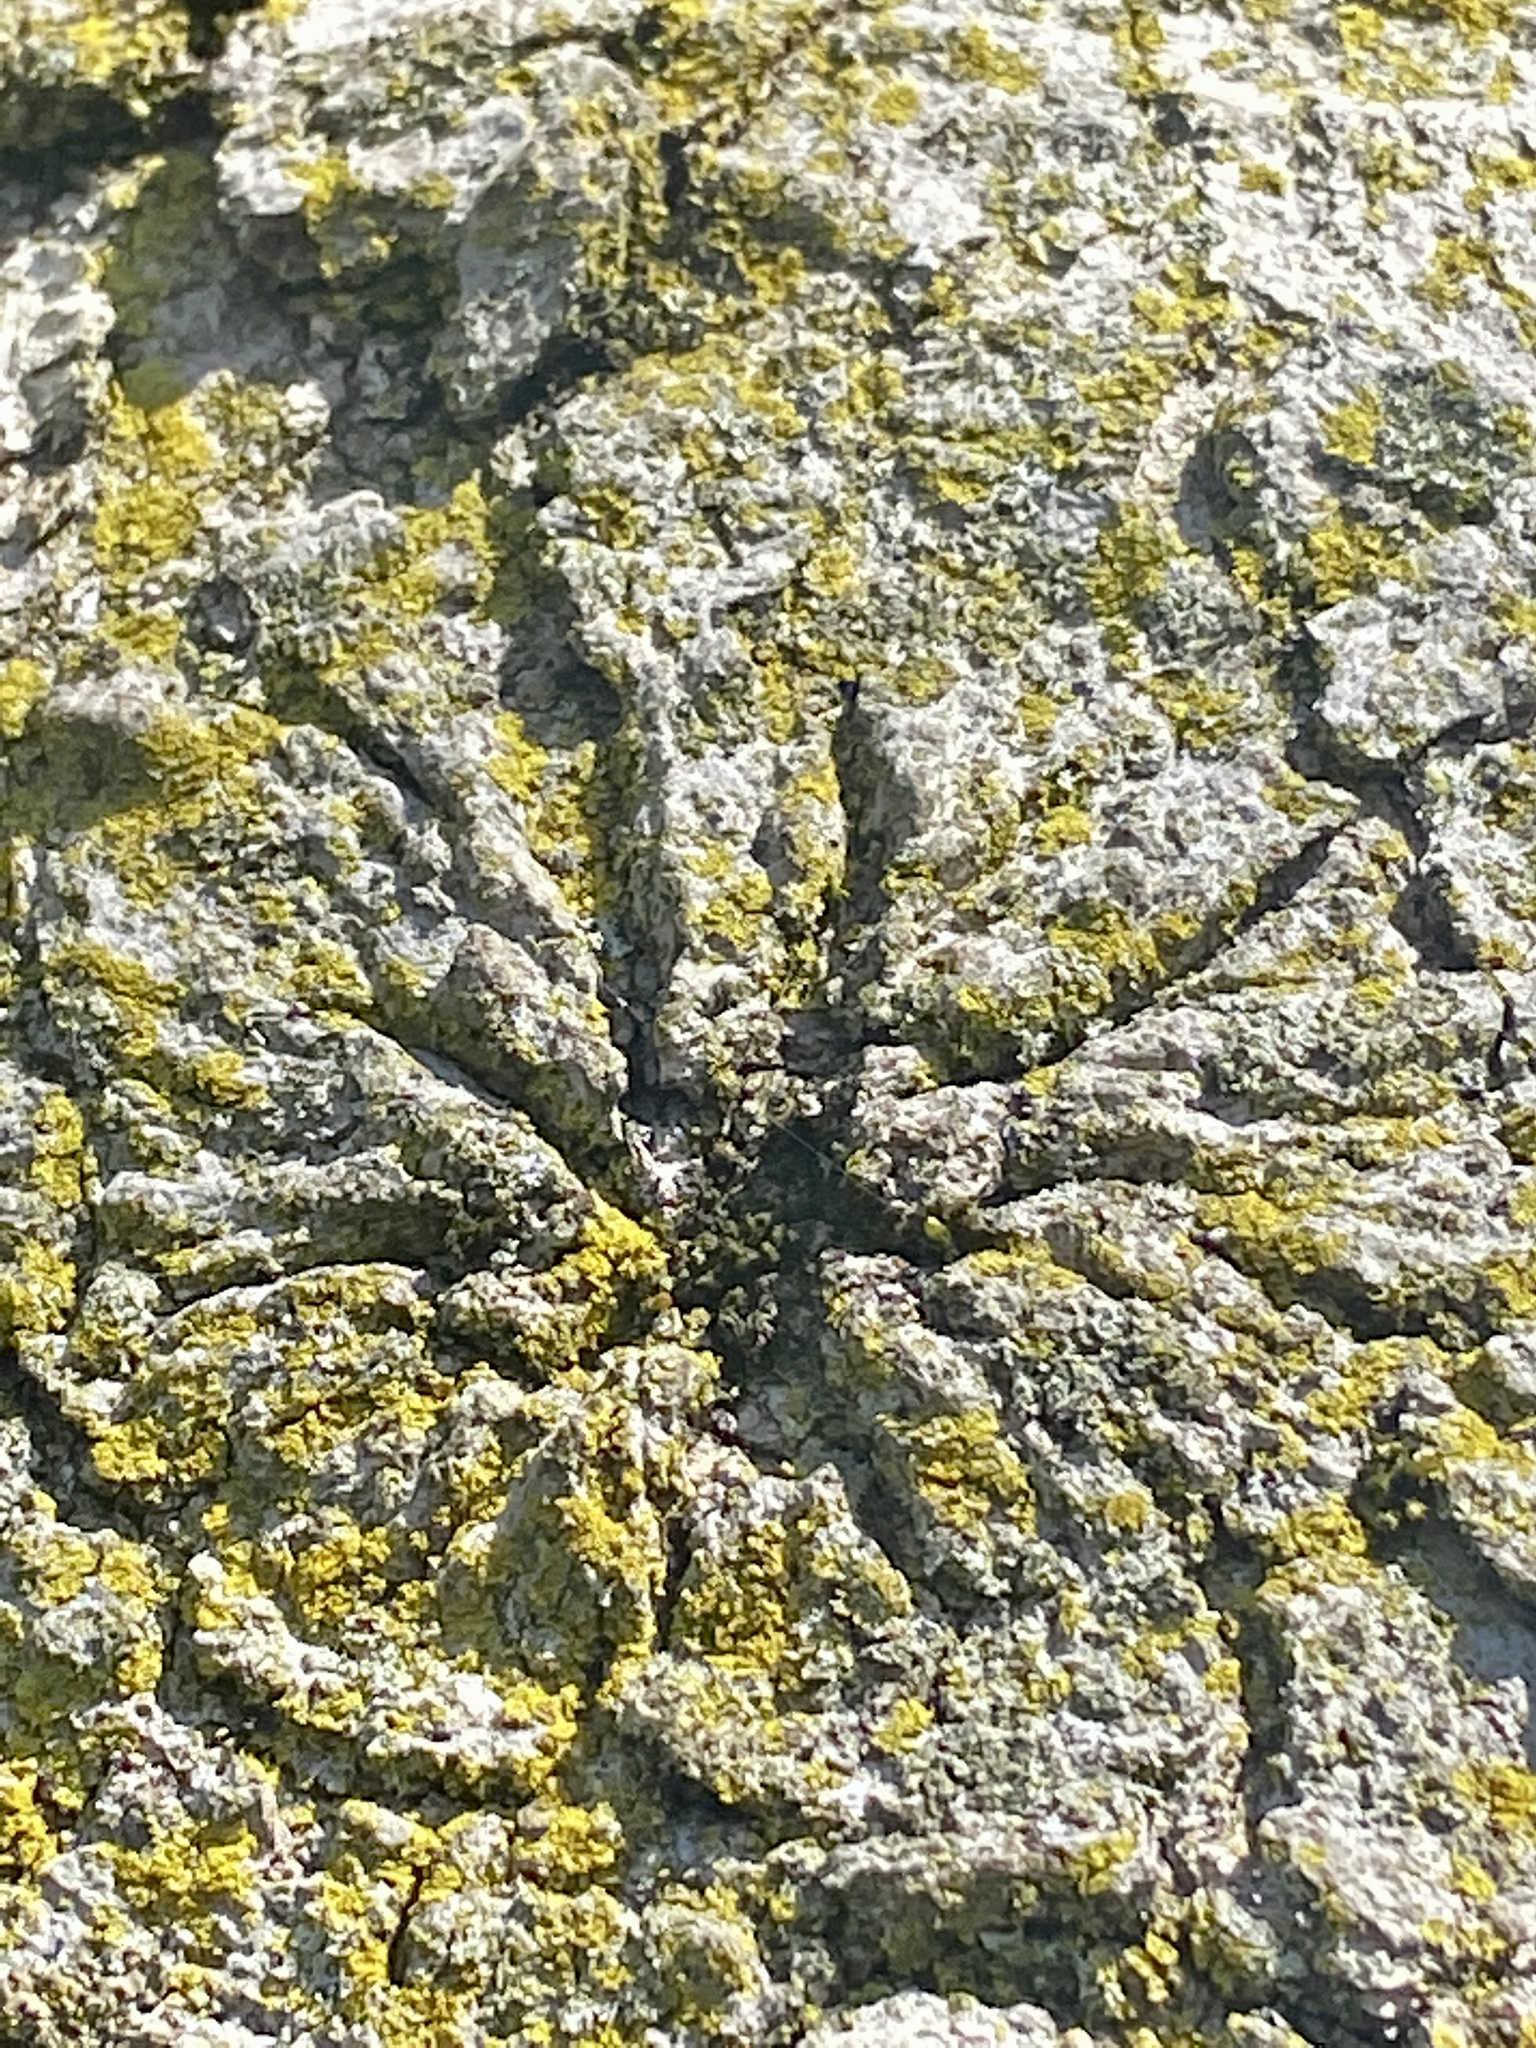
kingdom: Fungi
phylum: Ascomycota
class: Candelariomycetes
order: Candelariales
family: Candelariaceae
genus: Candelaria
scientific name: Candelaria concolor
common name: Candleflame lichen
